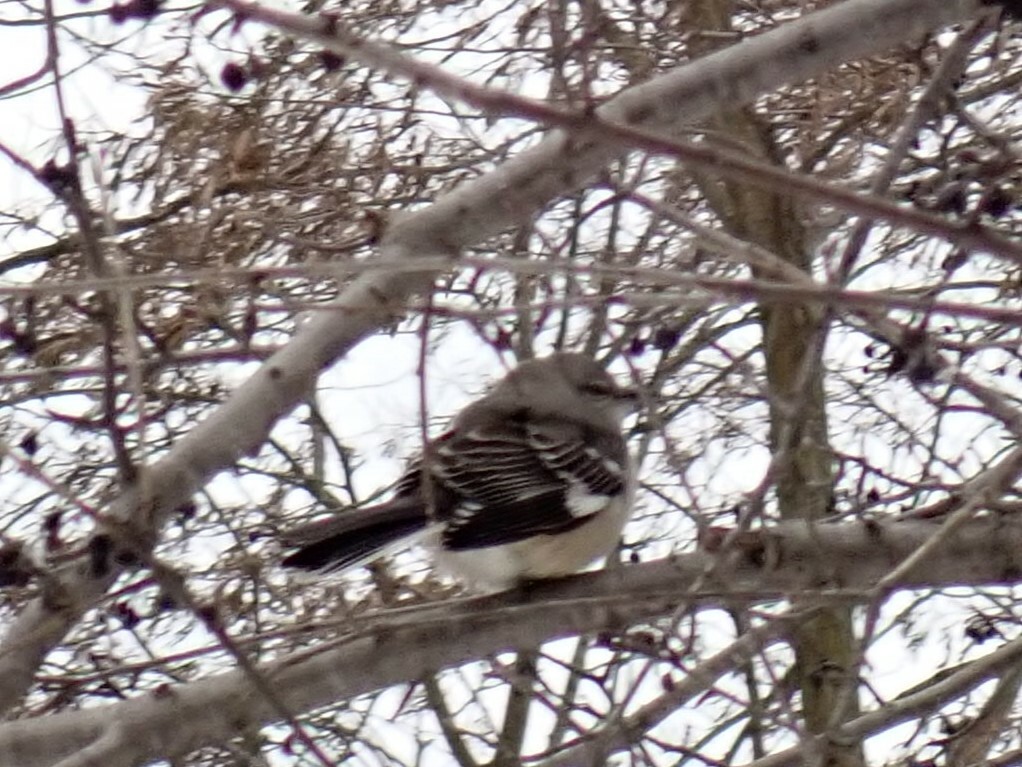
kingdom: Animalia
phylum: Chordata
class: Aves
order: Passeriformes
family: Mimidae
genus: Mimus
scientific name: Mimus polyglottos
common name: Northern mockingbird
